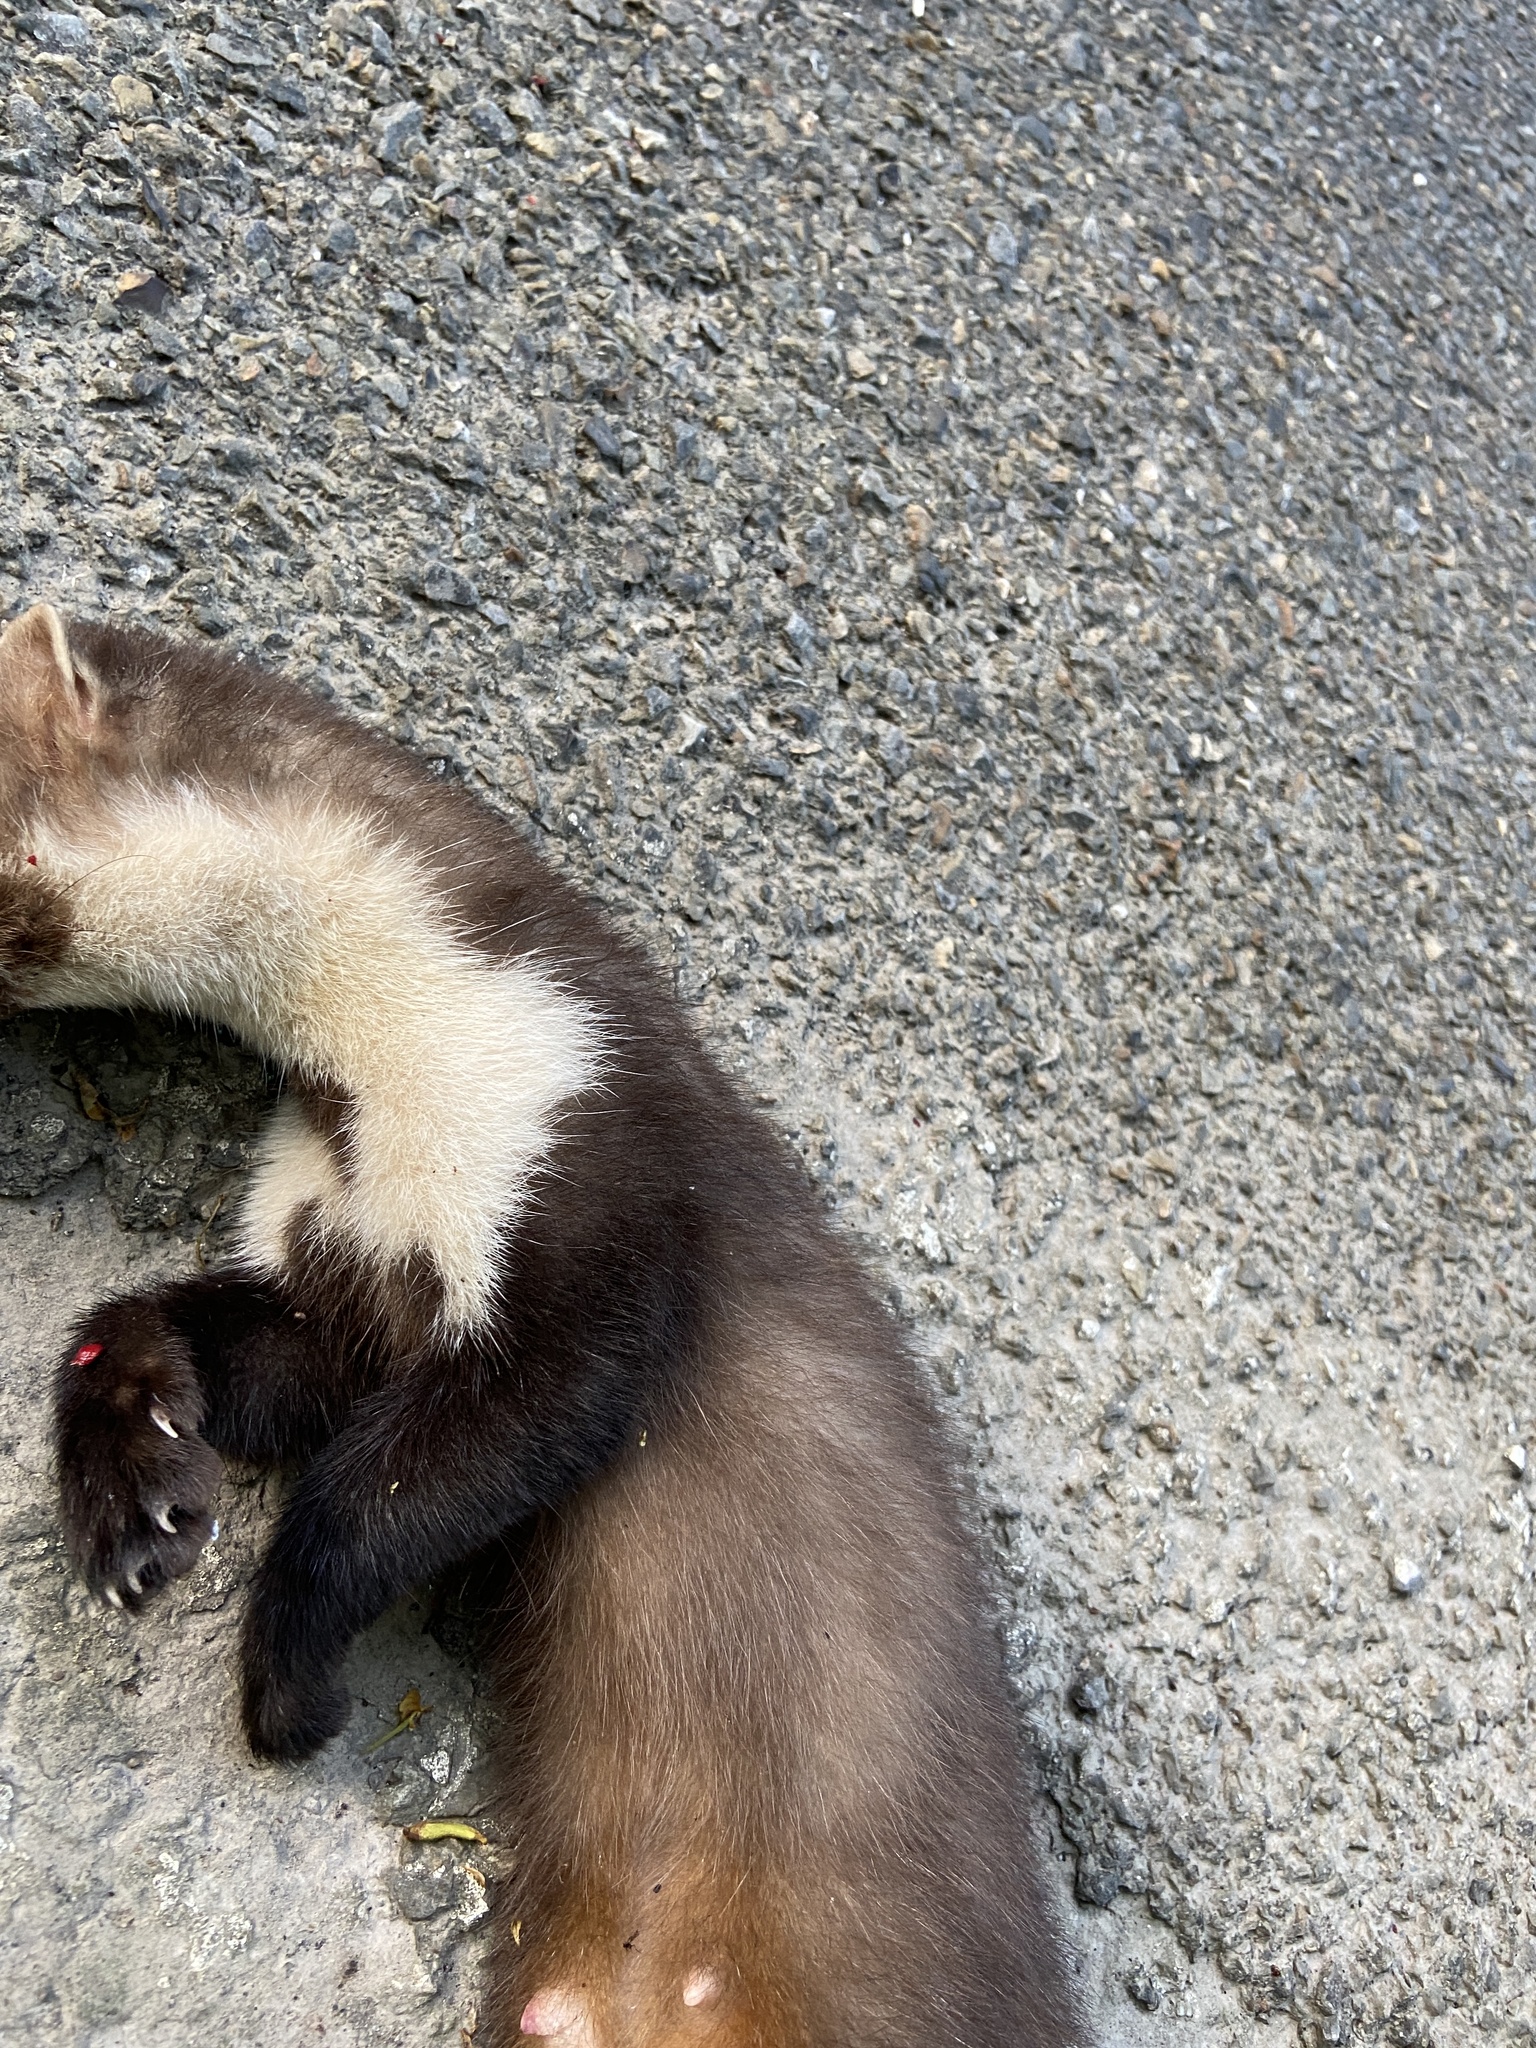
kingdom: Animalia
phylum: Chordata
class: Mammalia
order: Carnivora
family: Mustelidae
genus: Martes
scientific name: Martes foina
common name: Beech marten
